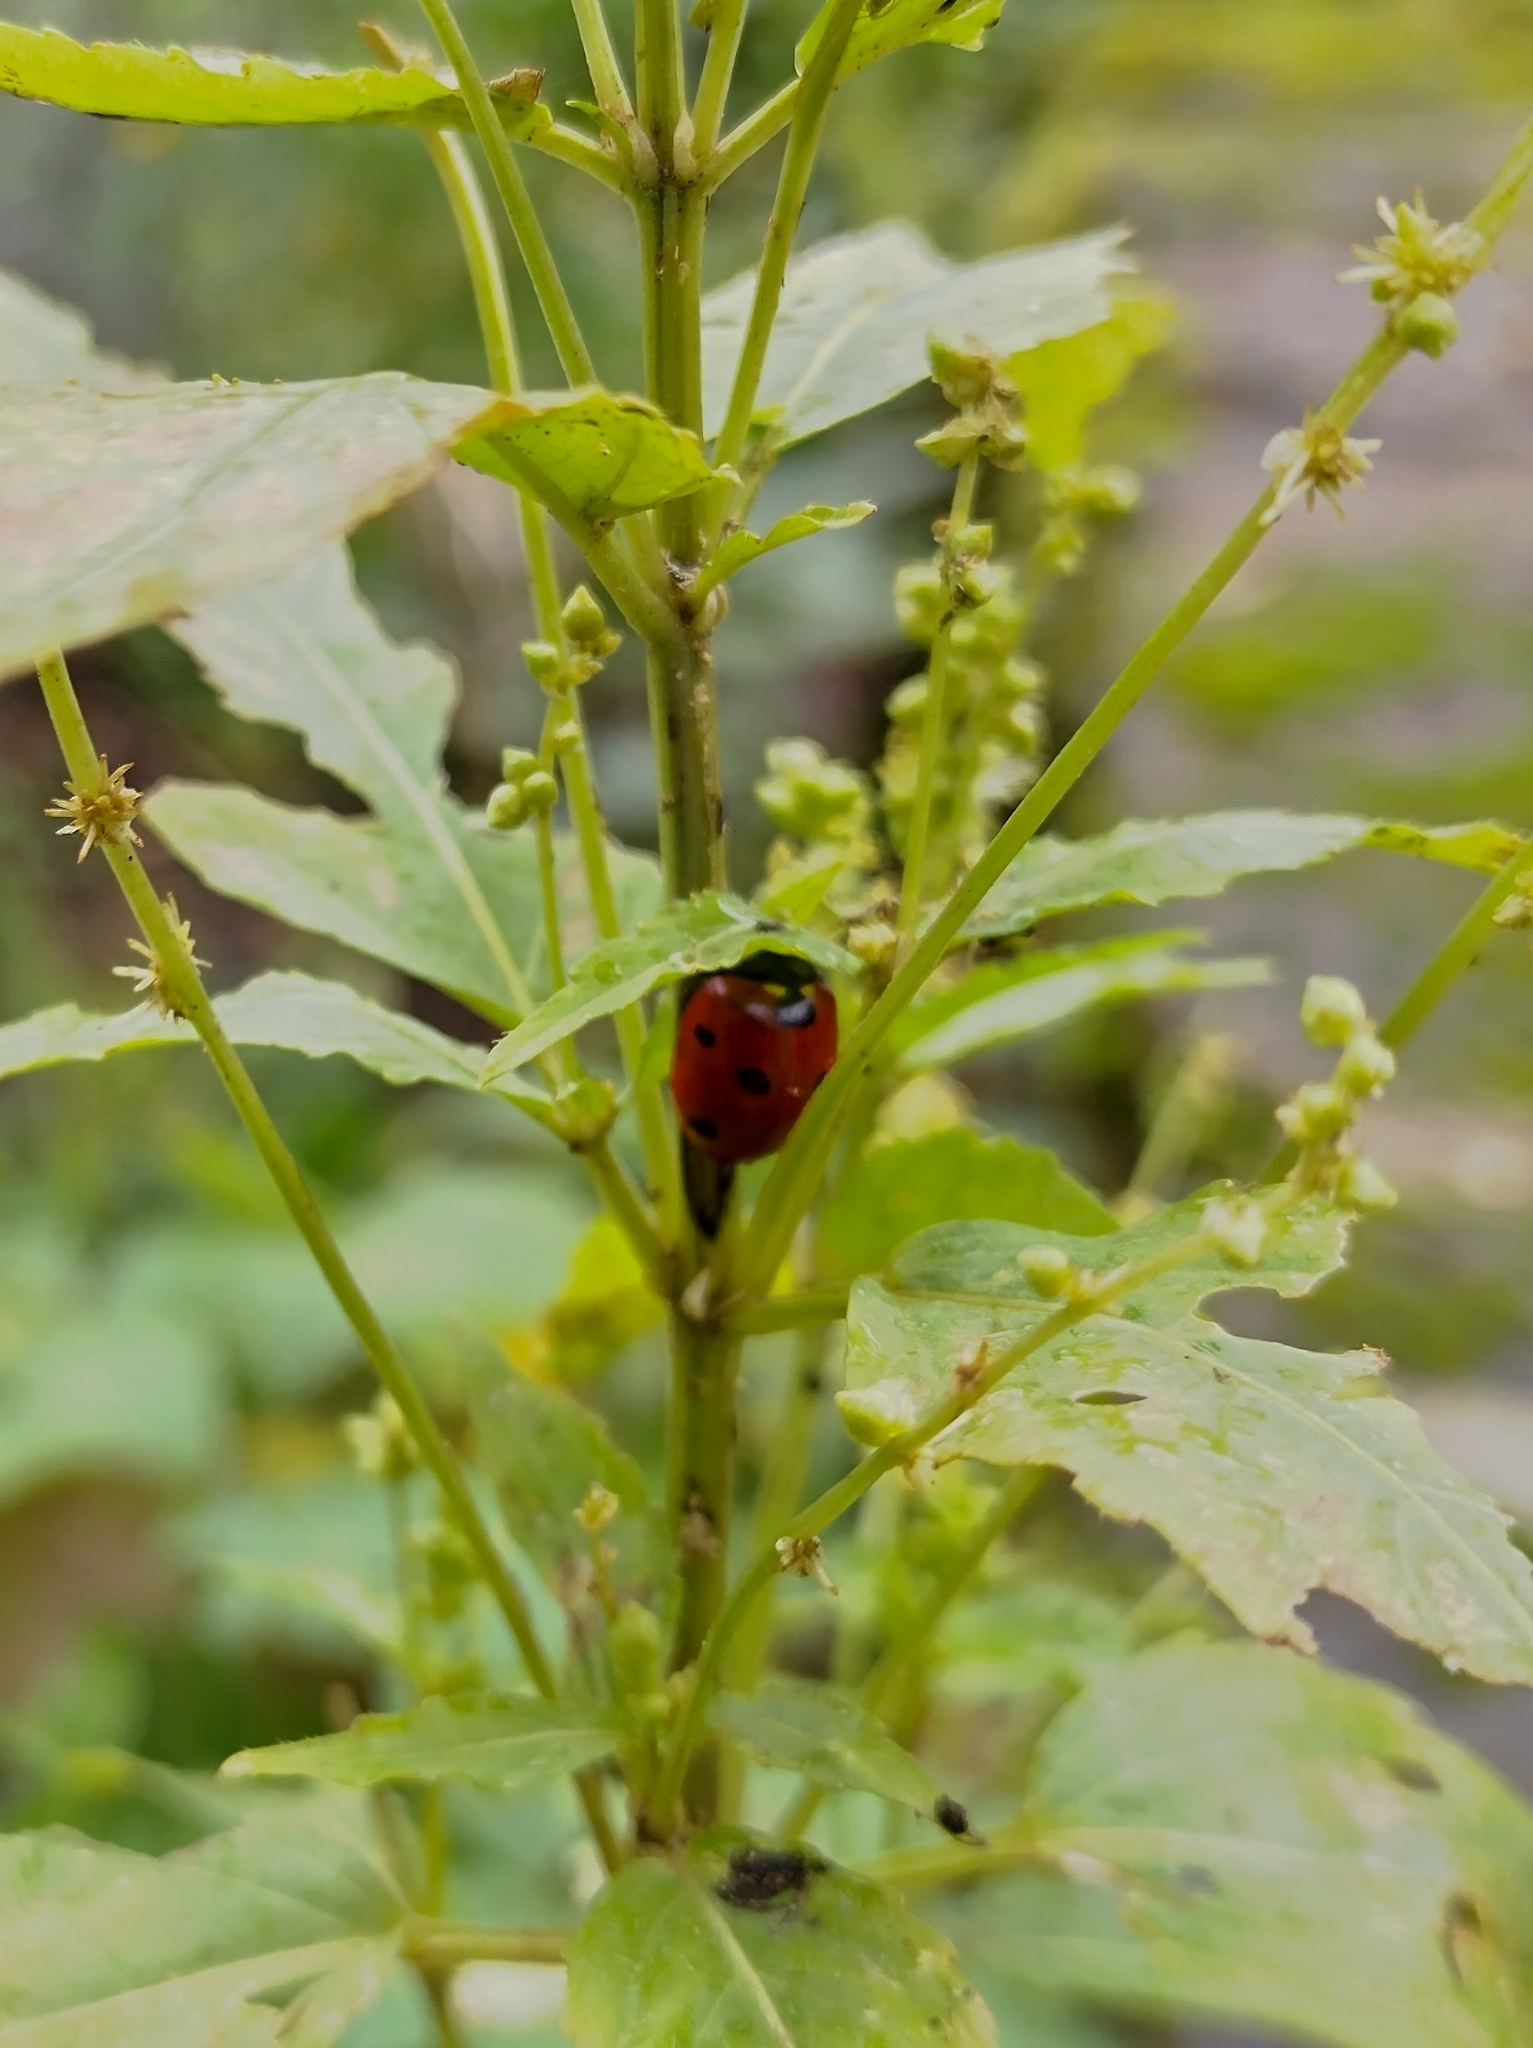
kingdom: Animalia
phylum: Arthropoda
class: Insecta
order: Coleoptera
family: Coccinellidae
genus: Coccinella
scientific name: Coccinella septempunctata
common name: Sevenspotted lady beetle
